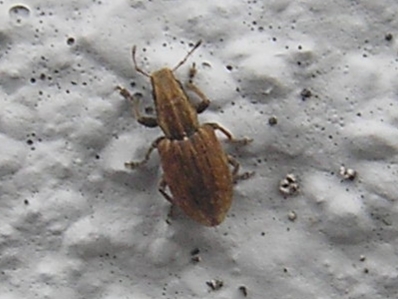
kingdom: Animalia
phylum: Arthropoda
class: Insecta
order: Coleoptera
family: Curculionidae
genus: Sitona
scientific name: Sitona obsoletus
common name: Weevil
